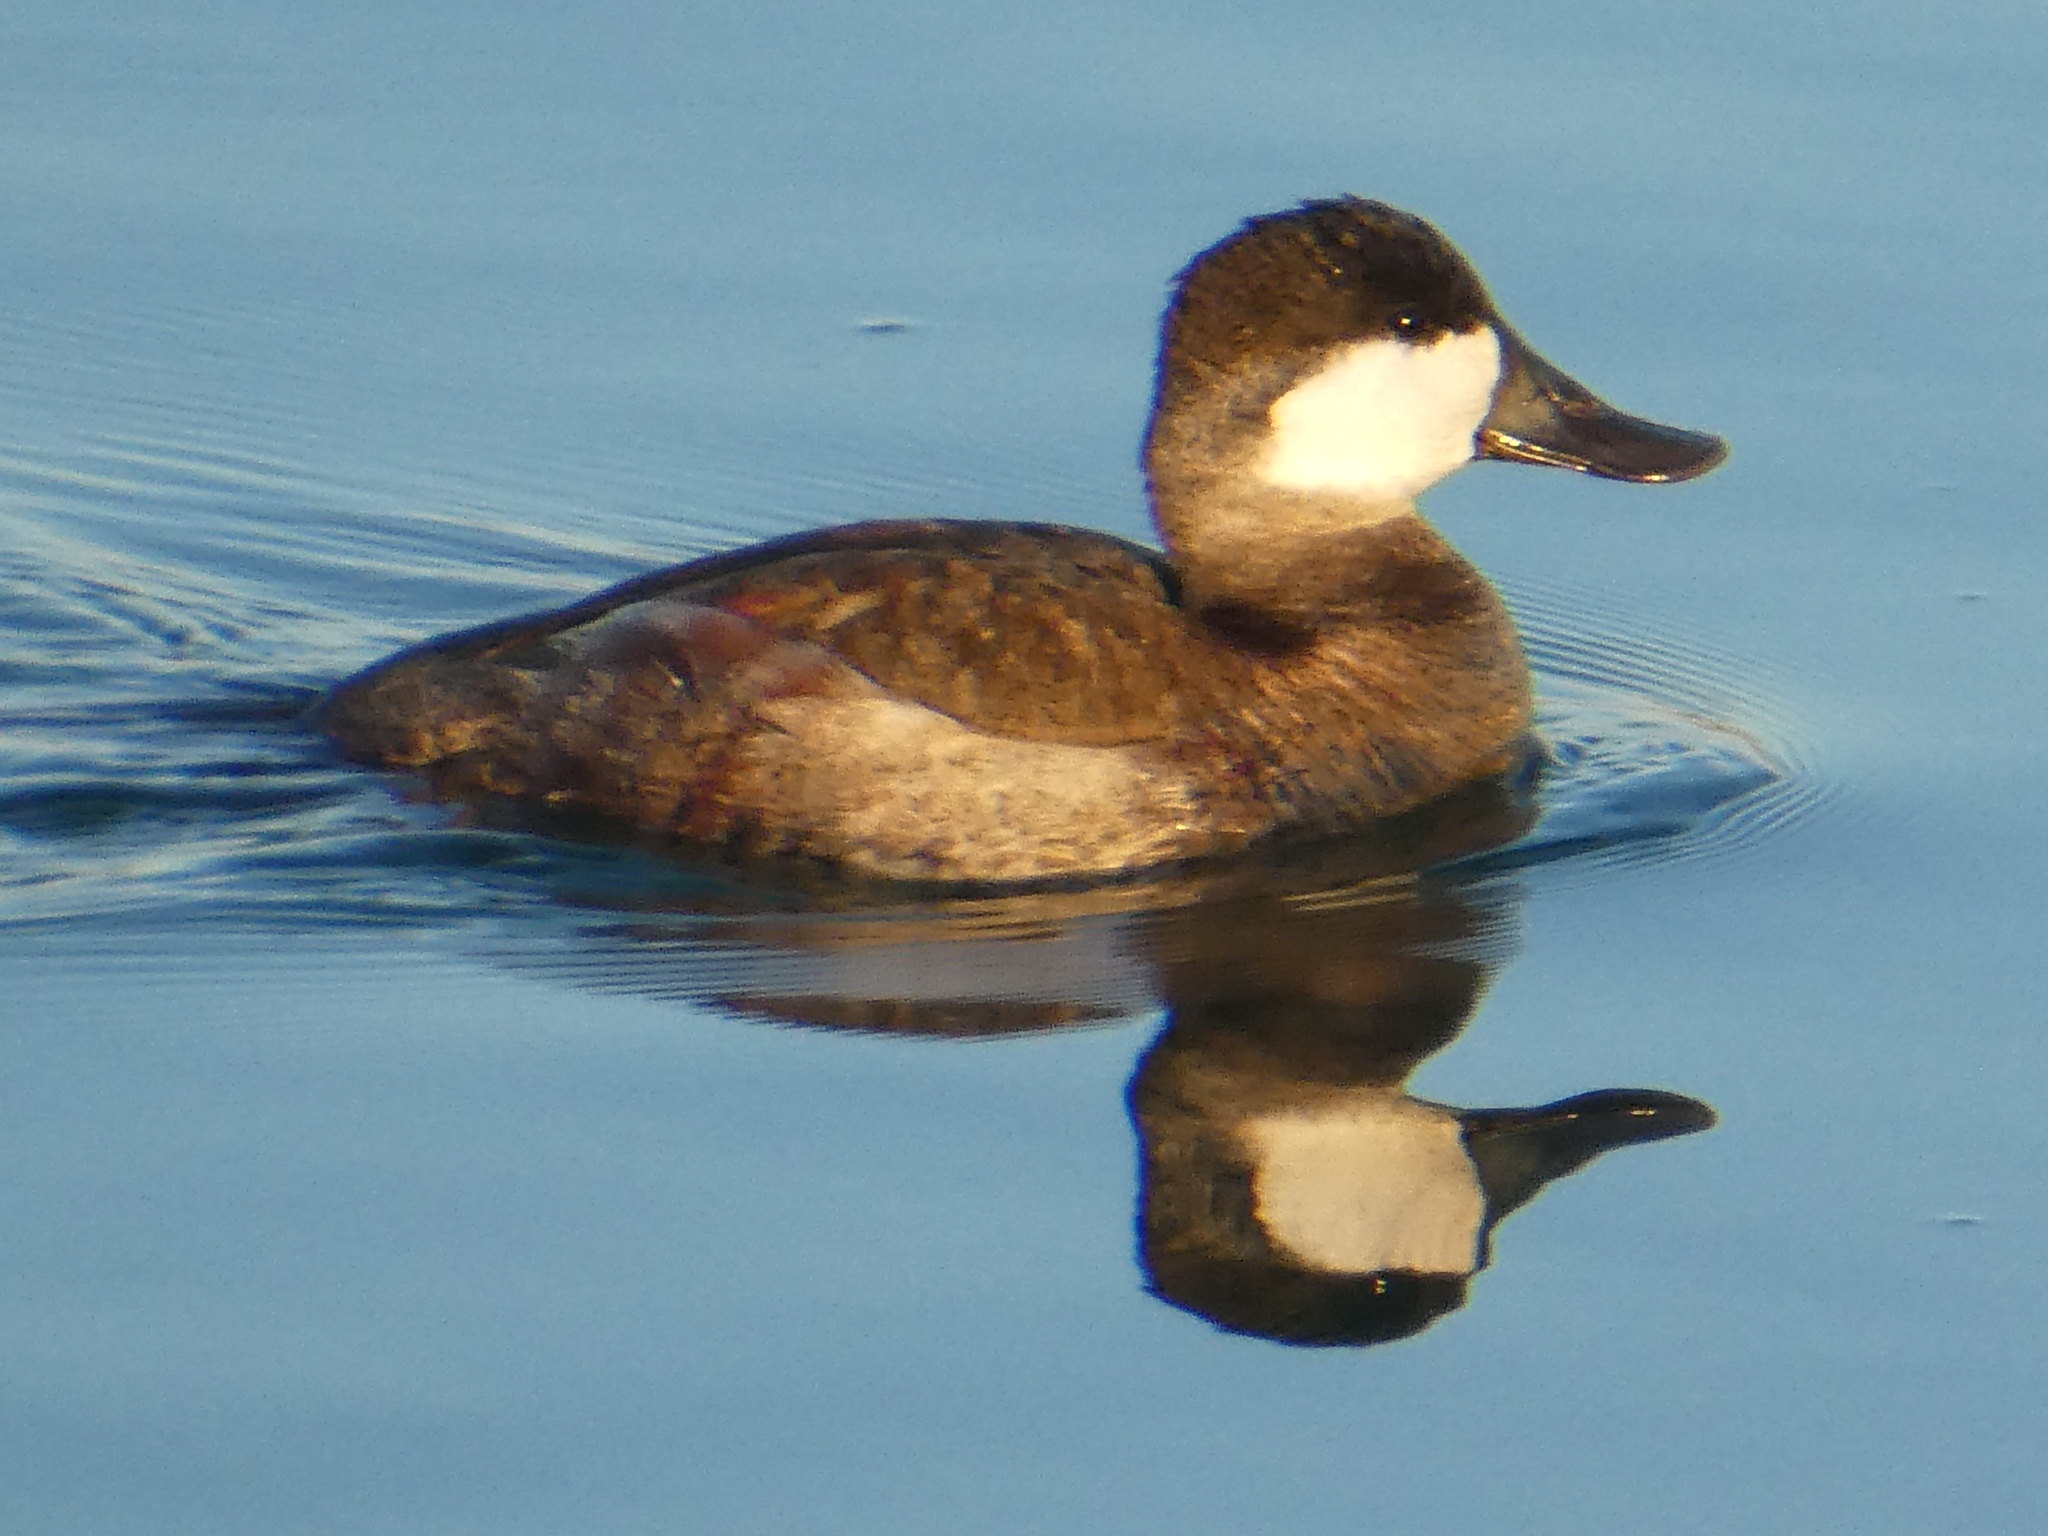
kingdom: Animalia
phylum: Chordata
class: Aves
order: Anseriformes
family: Anatidae
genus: Oxyura
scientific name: Oxyura jamaicensis
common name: Ruddy duck
